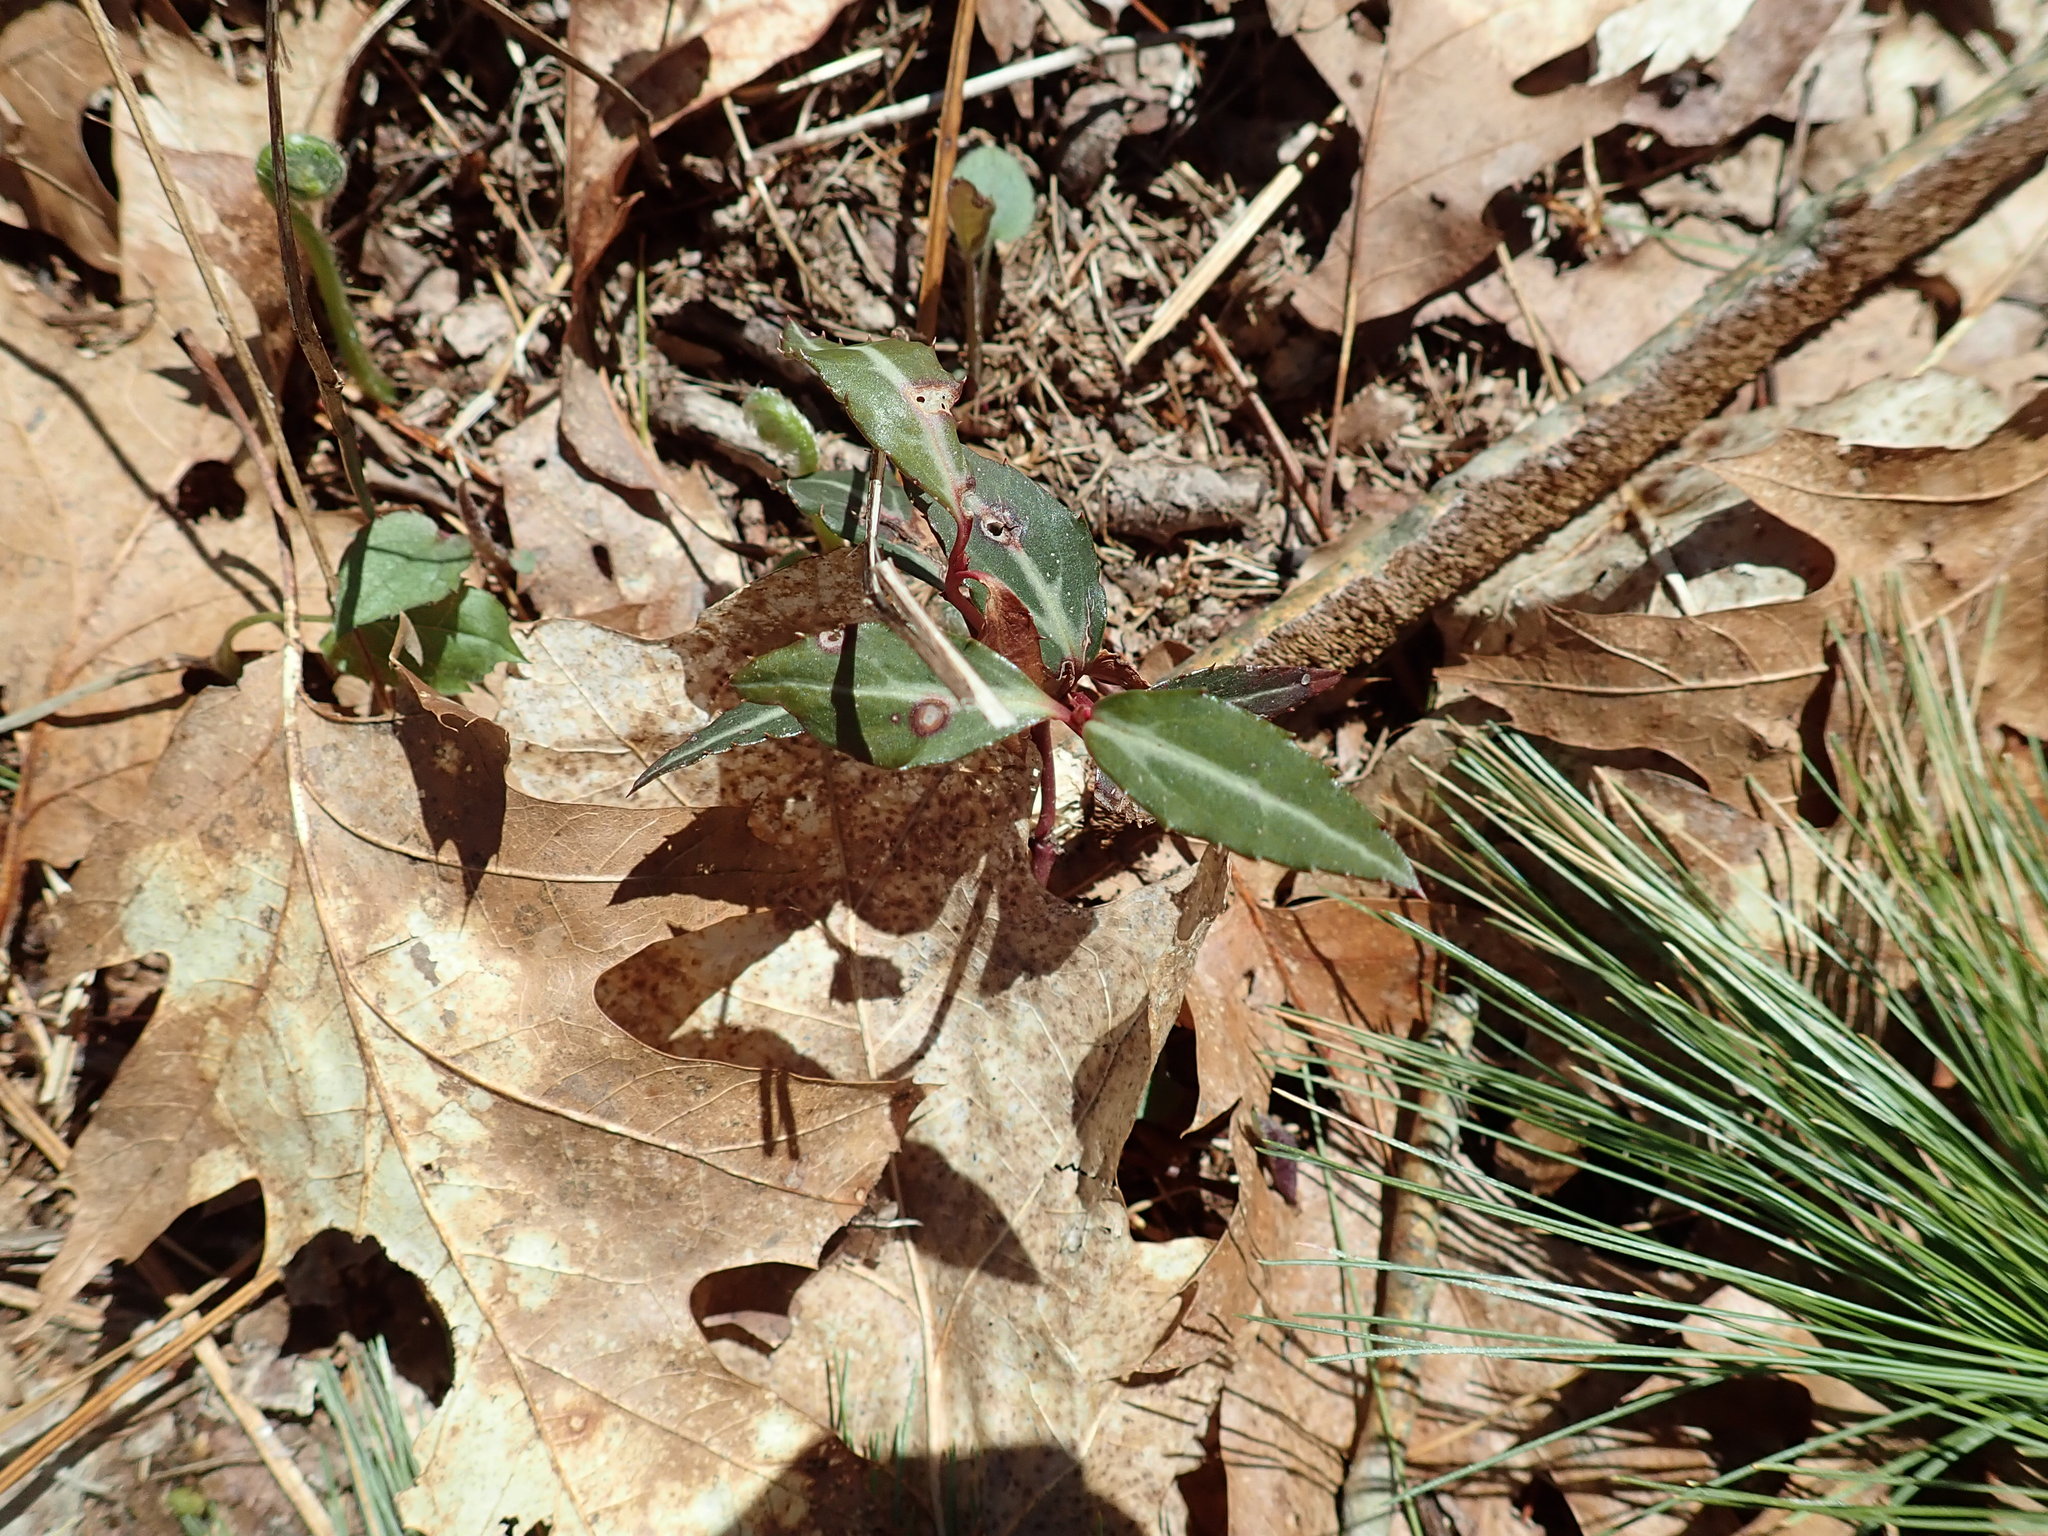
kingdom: Plantae
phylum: Tracheophyta
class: Magnoliopsida
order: Ericales
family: Ericaceae
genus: Chimaphila
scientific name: Chimaphila maculata
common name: Spotted pipsissewa
